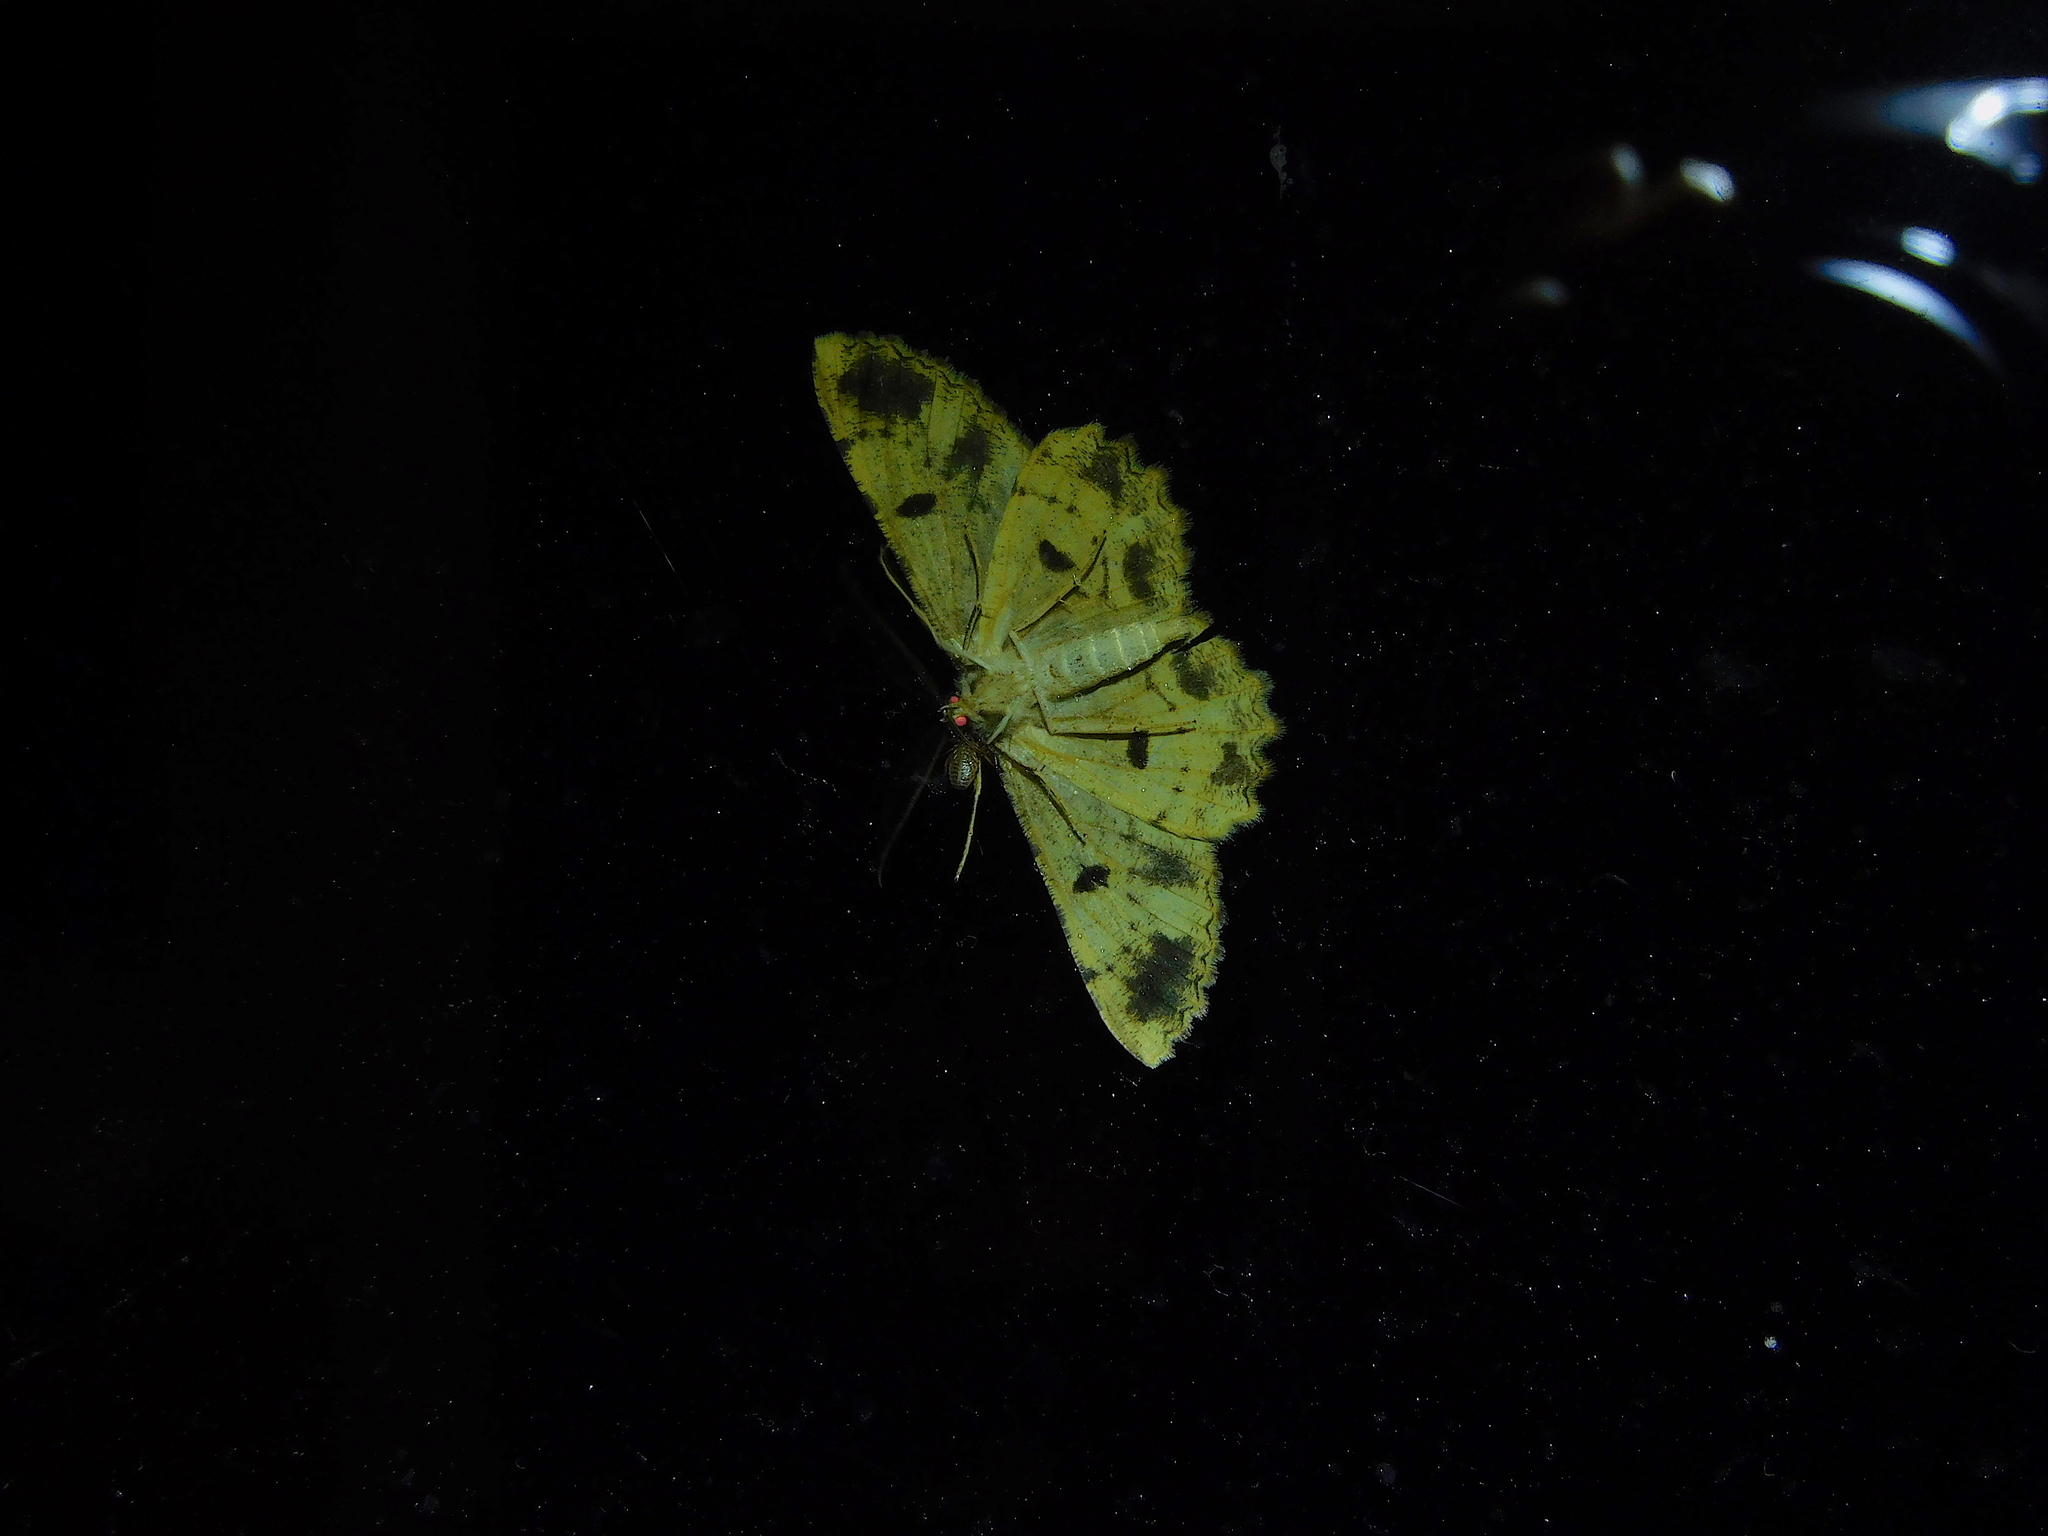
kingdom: Animalia
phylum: Arthropoda
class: Insecta
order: Lepidoptera
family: Geometridae
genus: Scioglyptis
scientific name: Scioglyptis lyciaria
